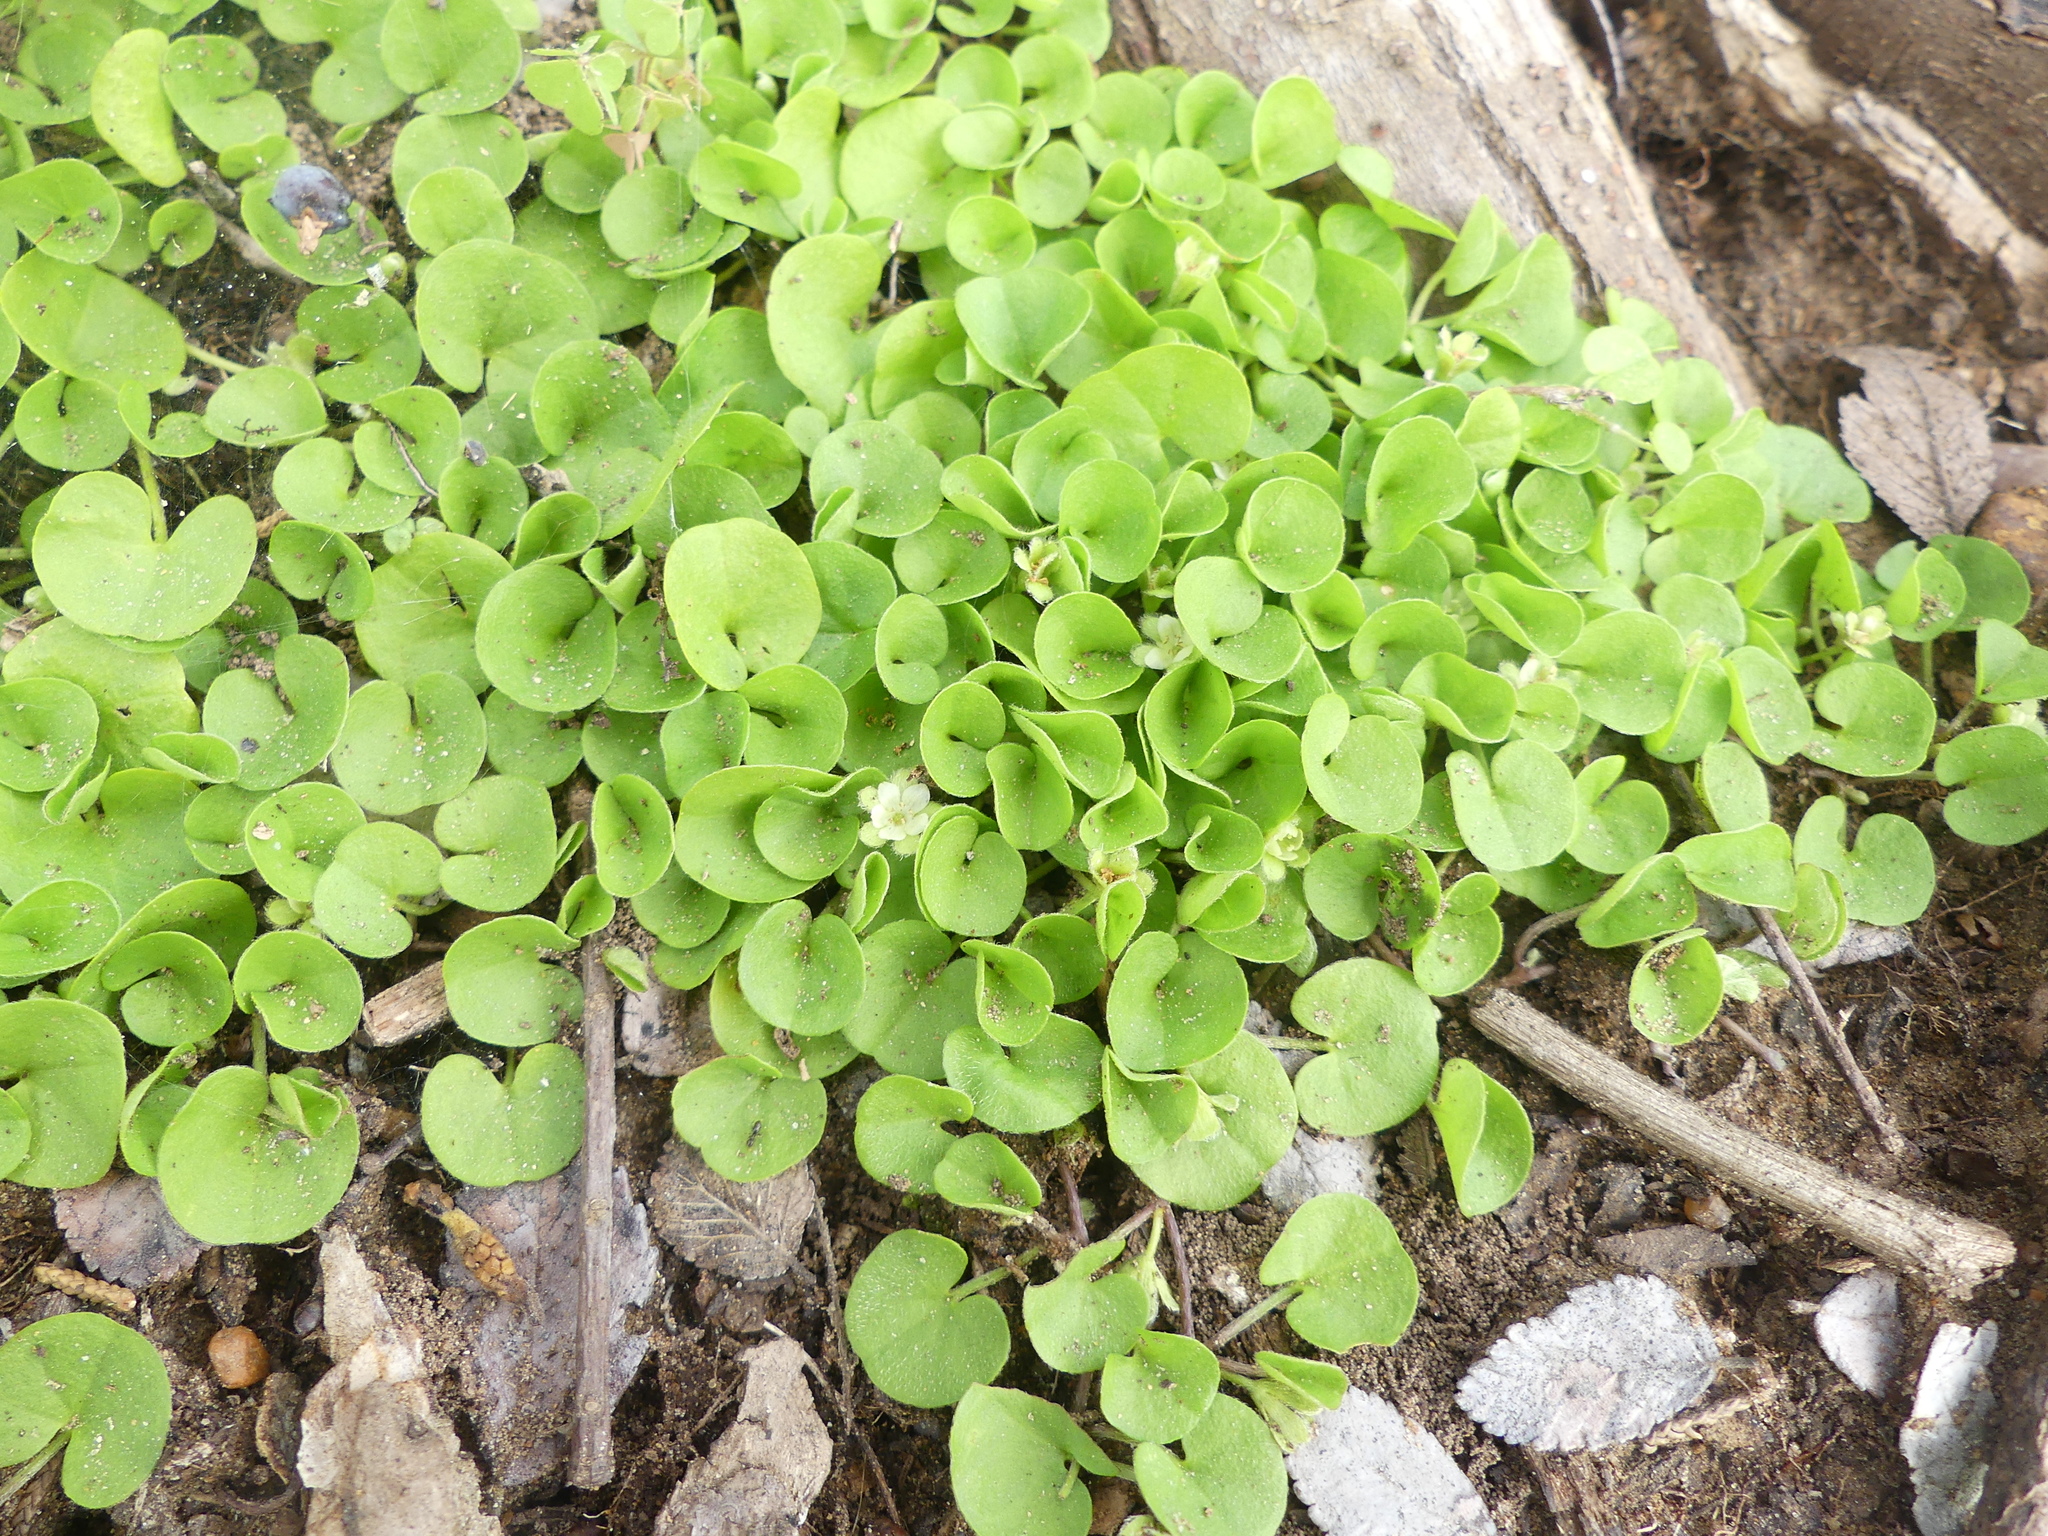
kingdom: Plantae
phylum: Tracheophyta
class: Magnoliopsida
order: Solanales
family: Convolvulaceae
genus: Dichondra
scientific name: Dichondra carolinensis
